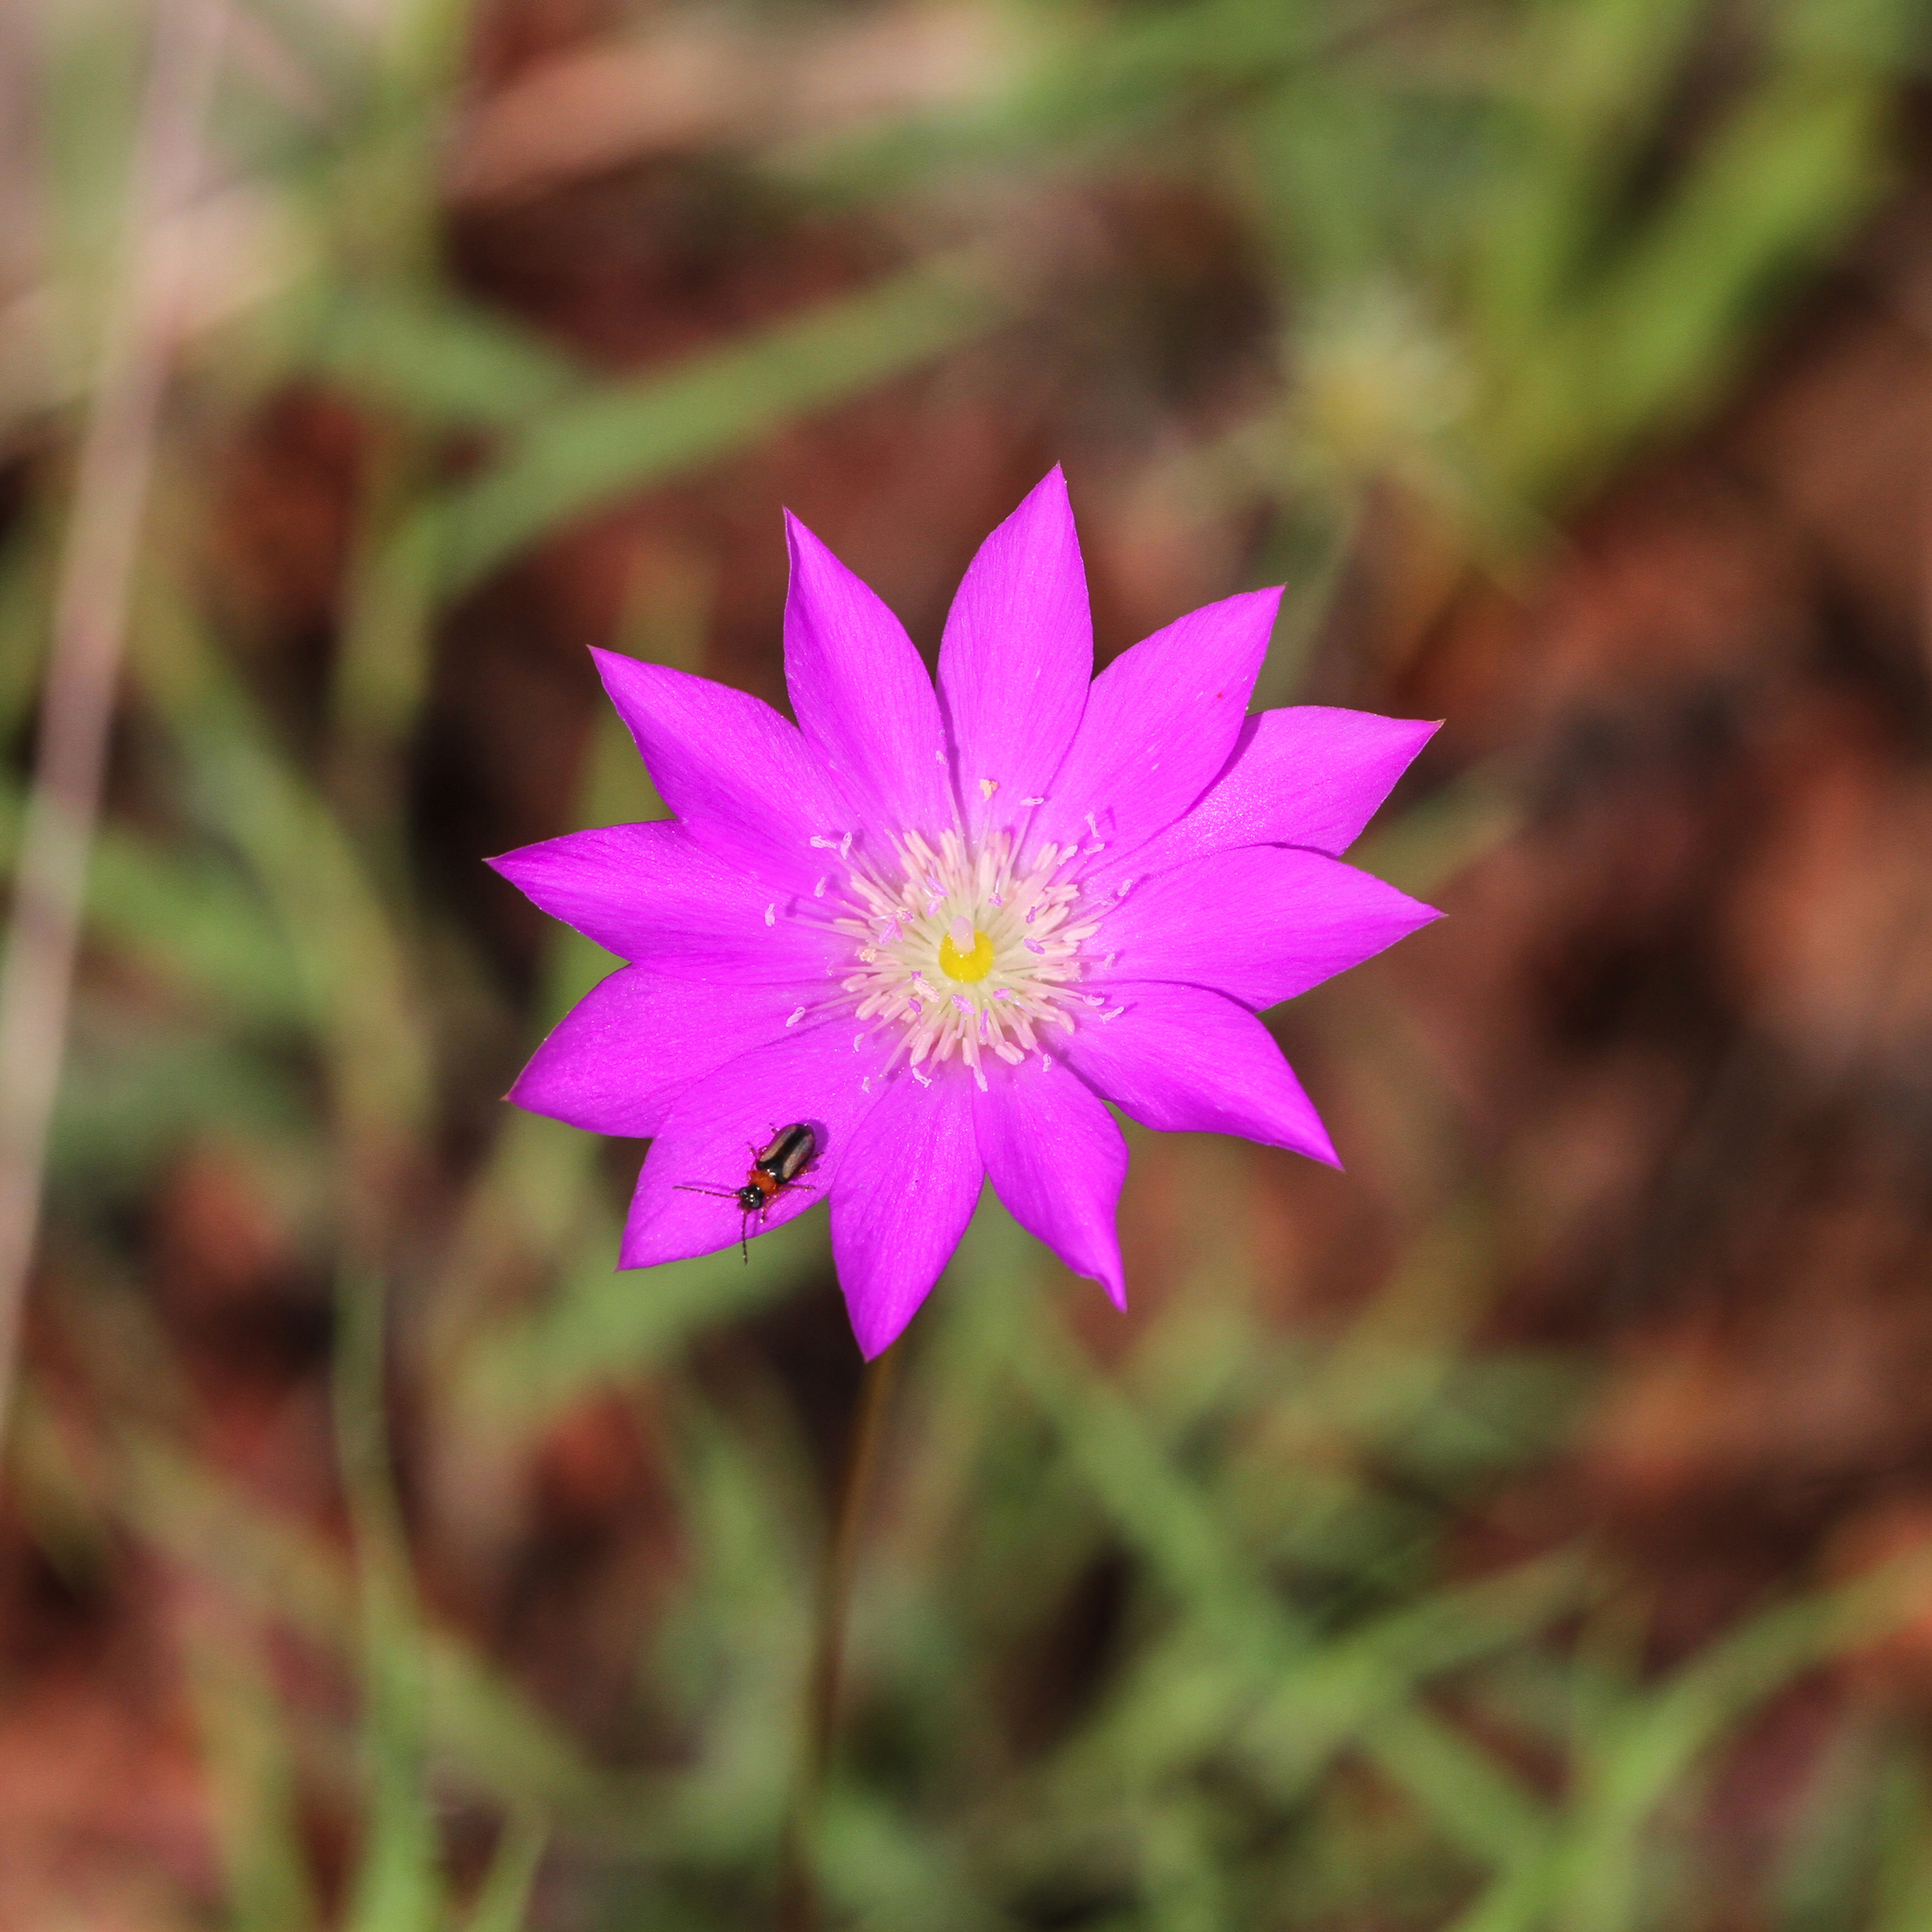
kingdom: Plantae
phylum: Tracheophyta
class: Magnoliopsida
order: Caryophyllales
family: Montiaceae
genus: Rumicastrum
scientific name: Rumicastrum uniflorum
